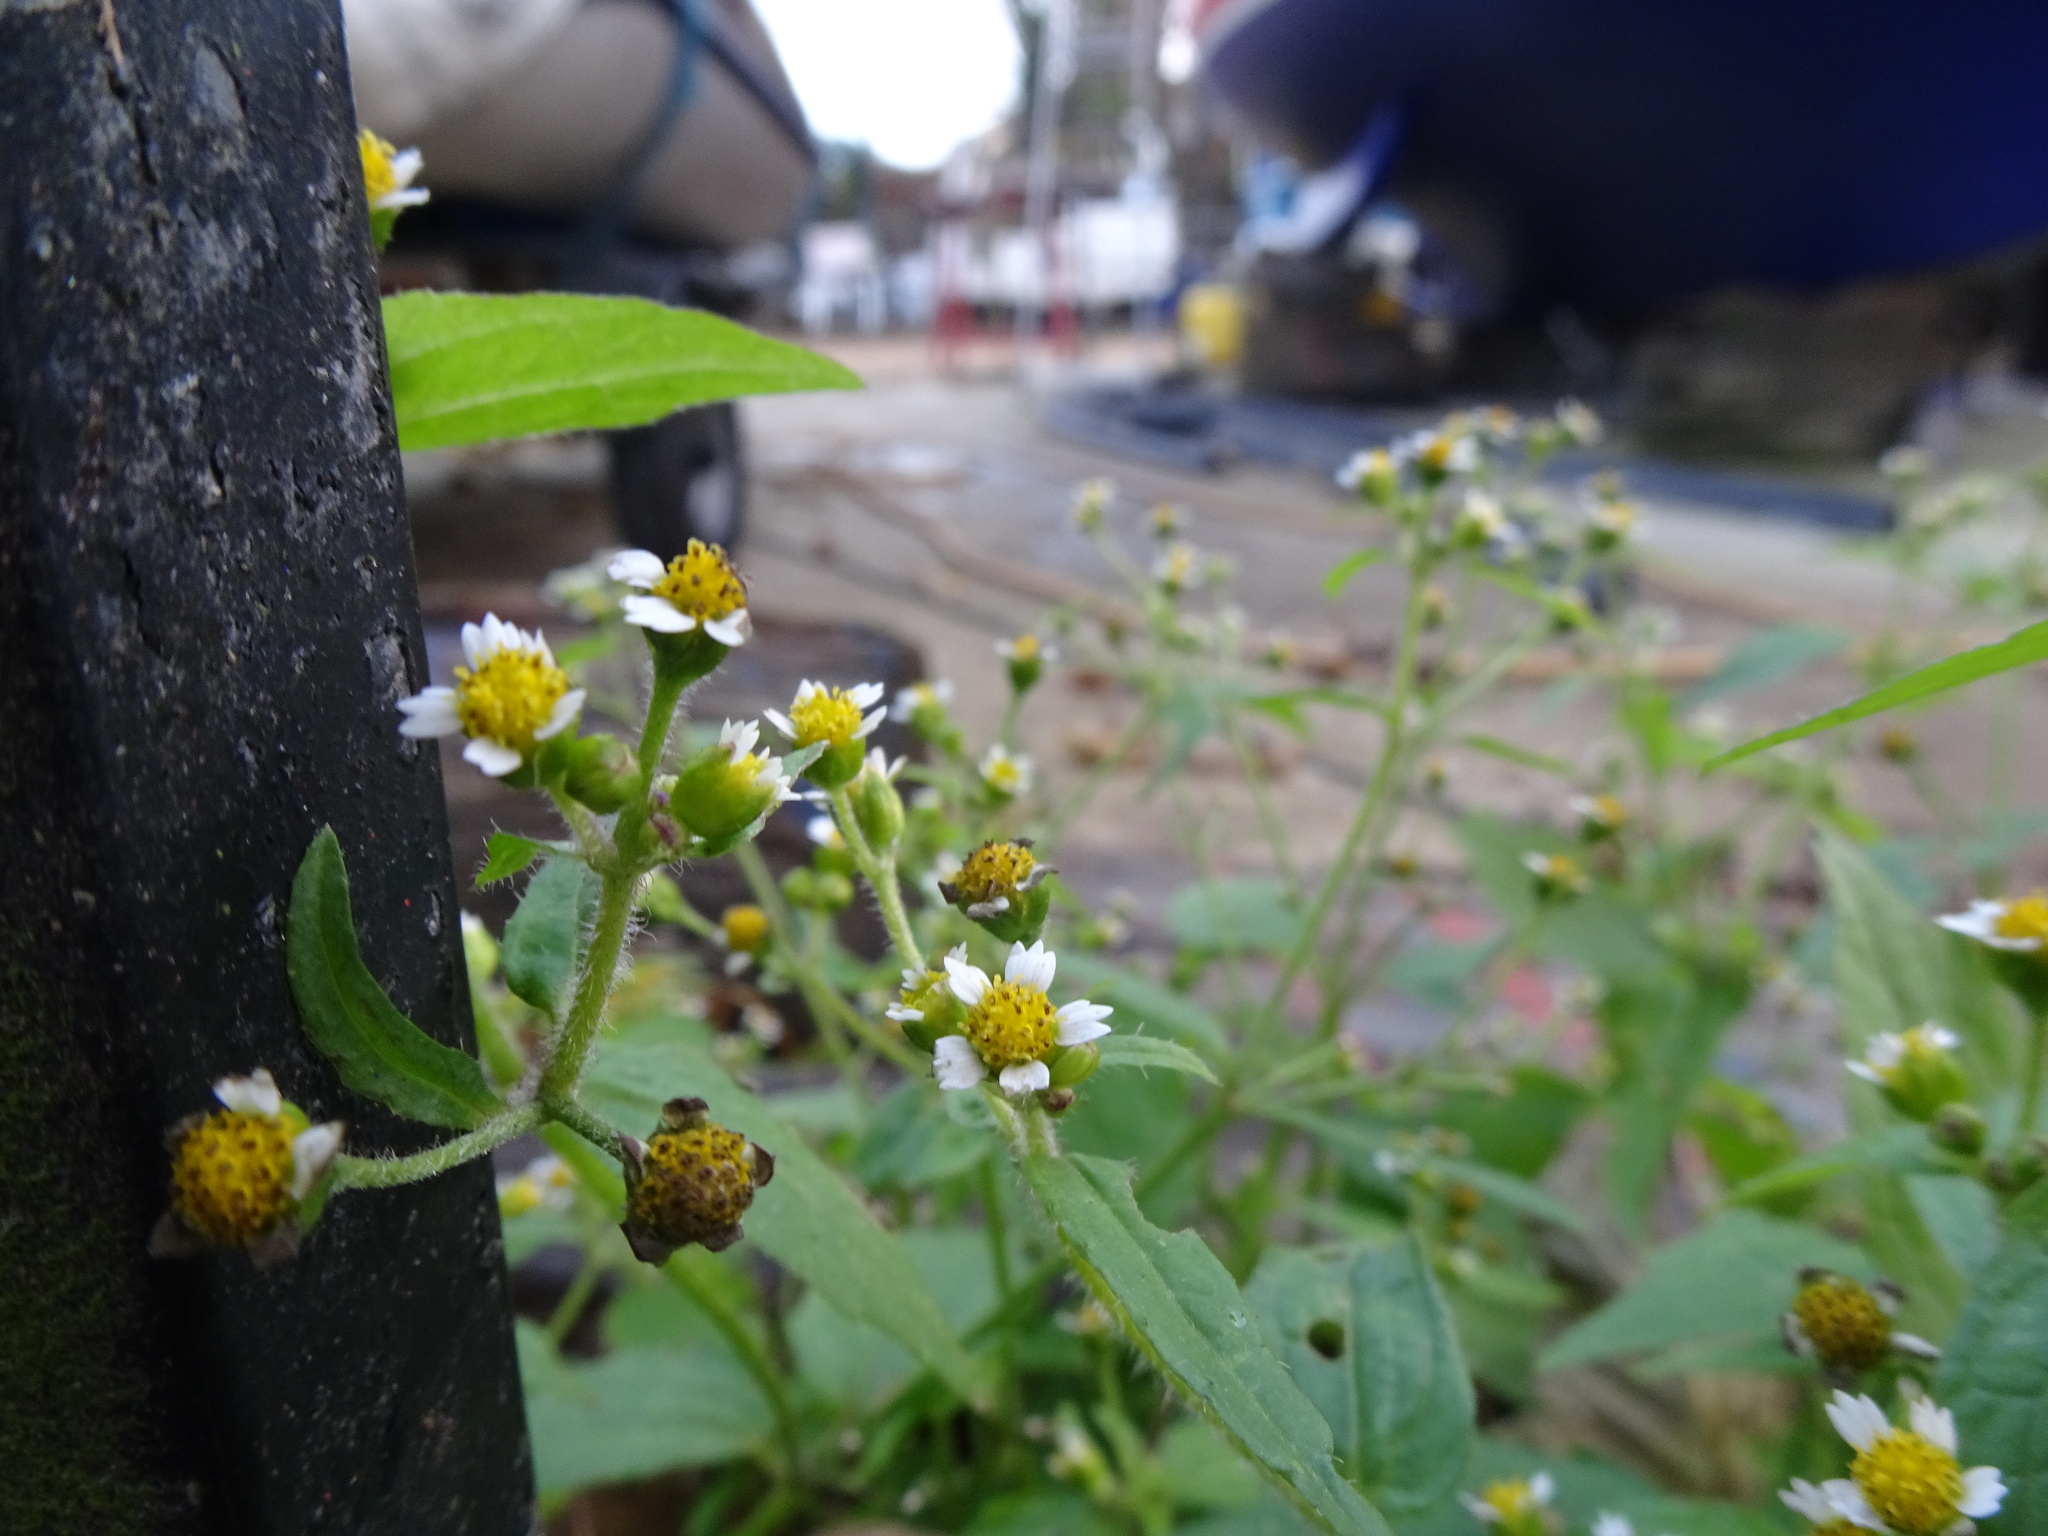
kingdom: Plantae
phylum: Tracheophyta
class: Magnoliopsida
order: Asterales
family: Asteraceae
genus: Galinsoga
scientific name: Galinsoga quadriradiata
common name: Shaggy soldier
